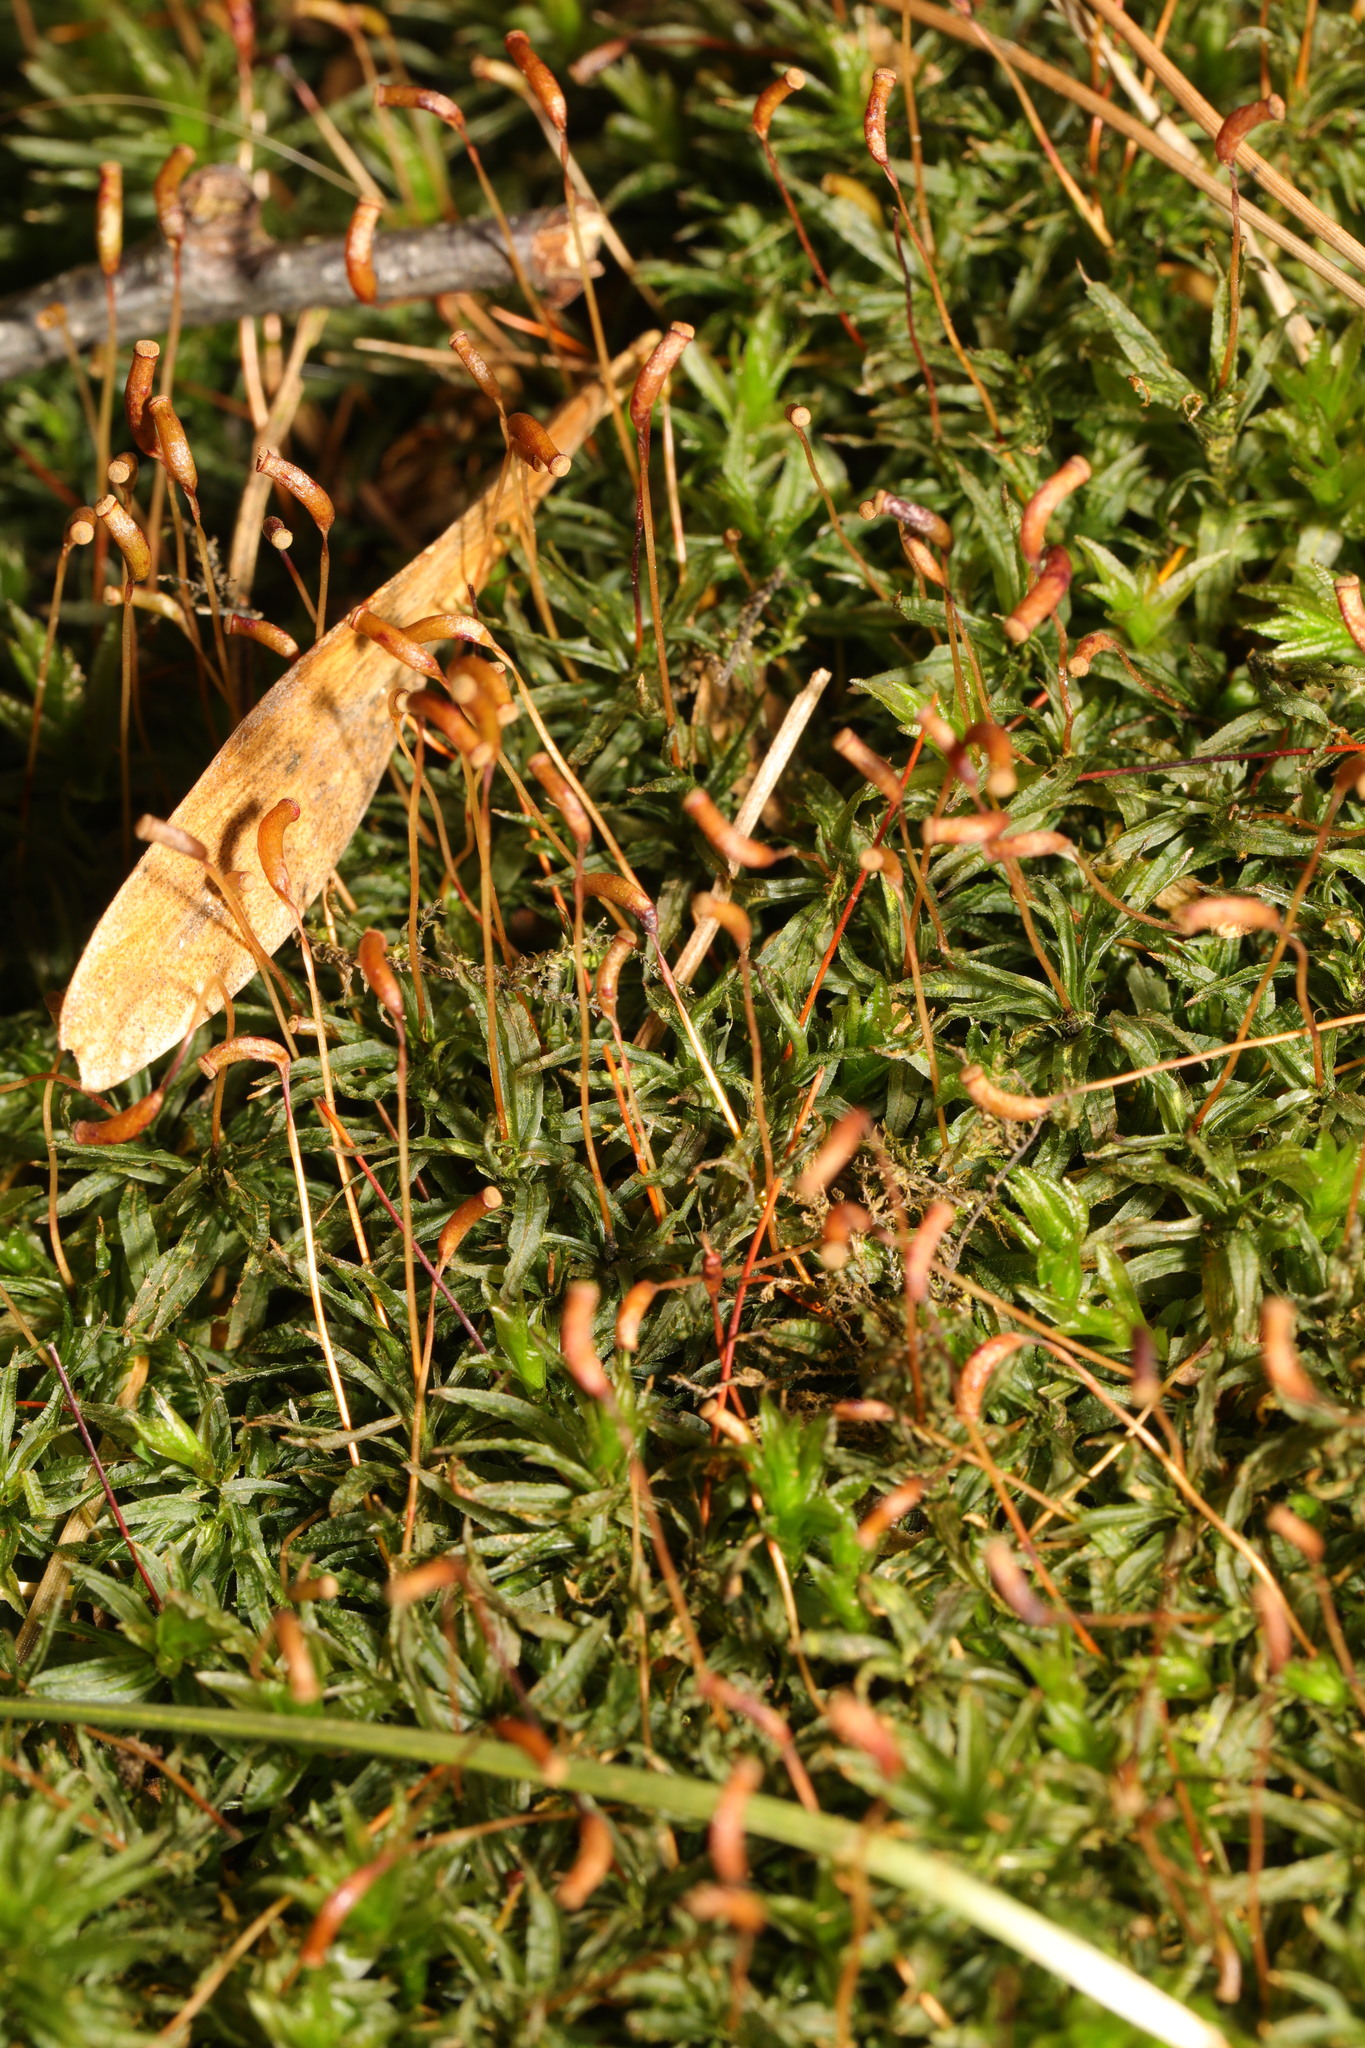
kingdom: Plantae
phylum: Bryophyta
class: Polytrichopsida
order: Polytrichales
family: Polytrichaceae
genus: Atrichum
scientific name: Atrichum undulatum
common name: Common smoothcap
